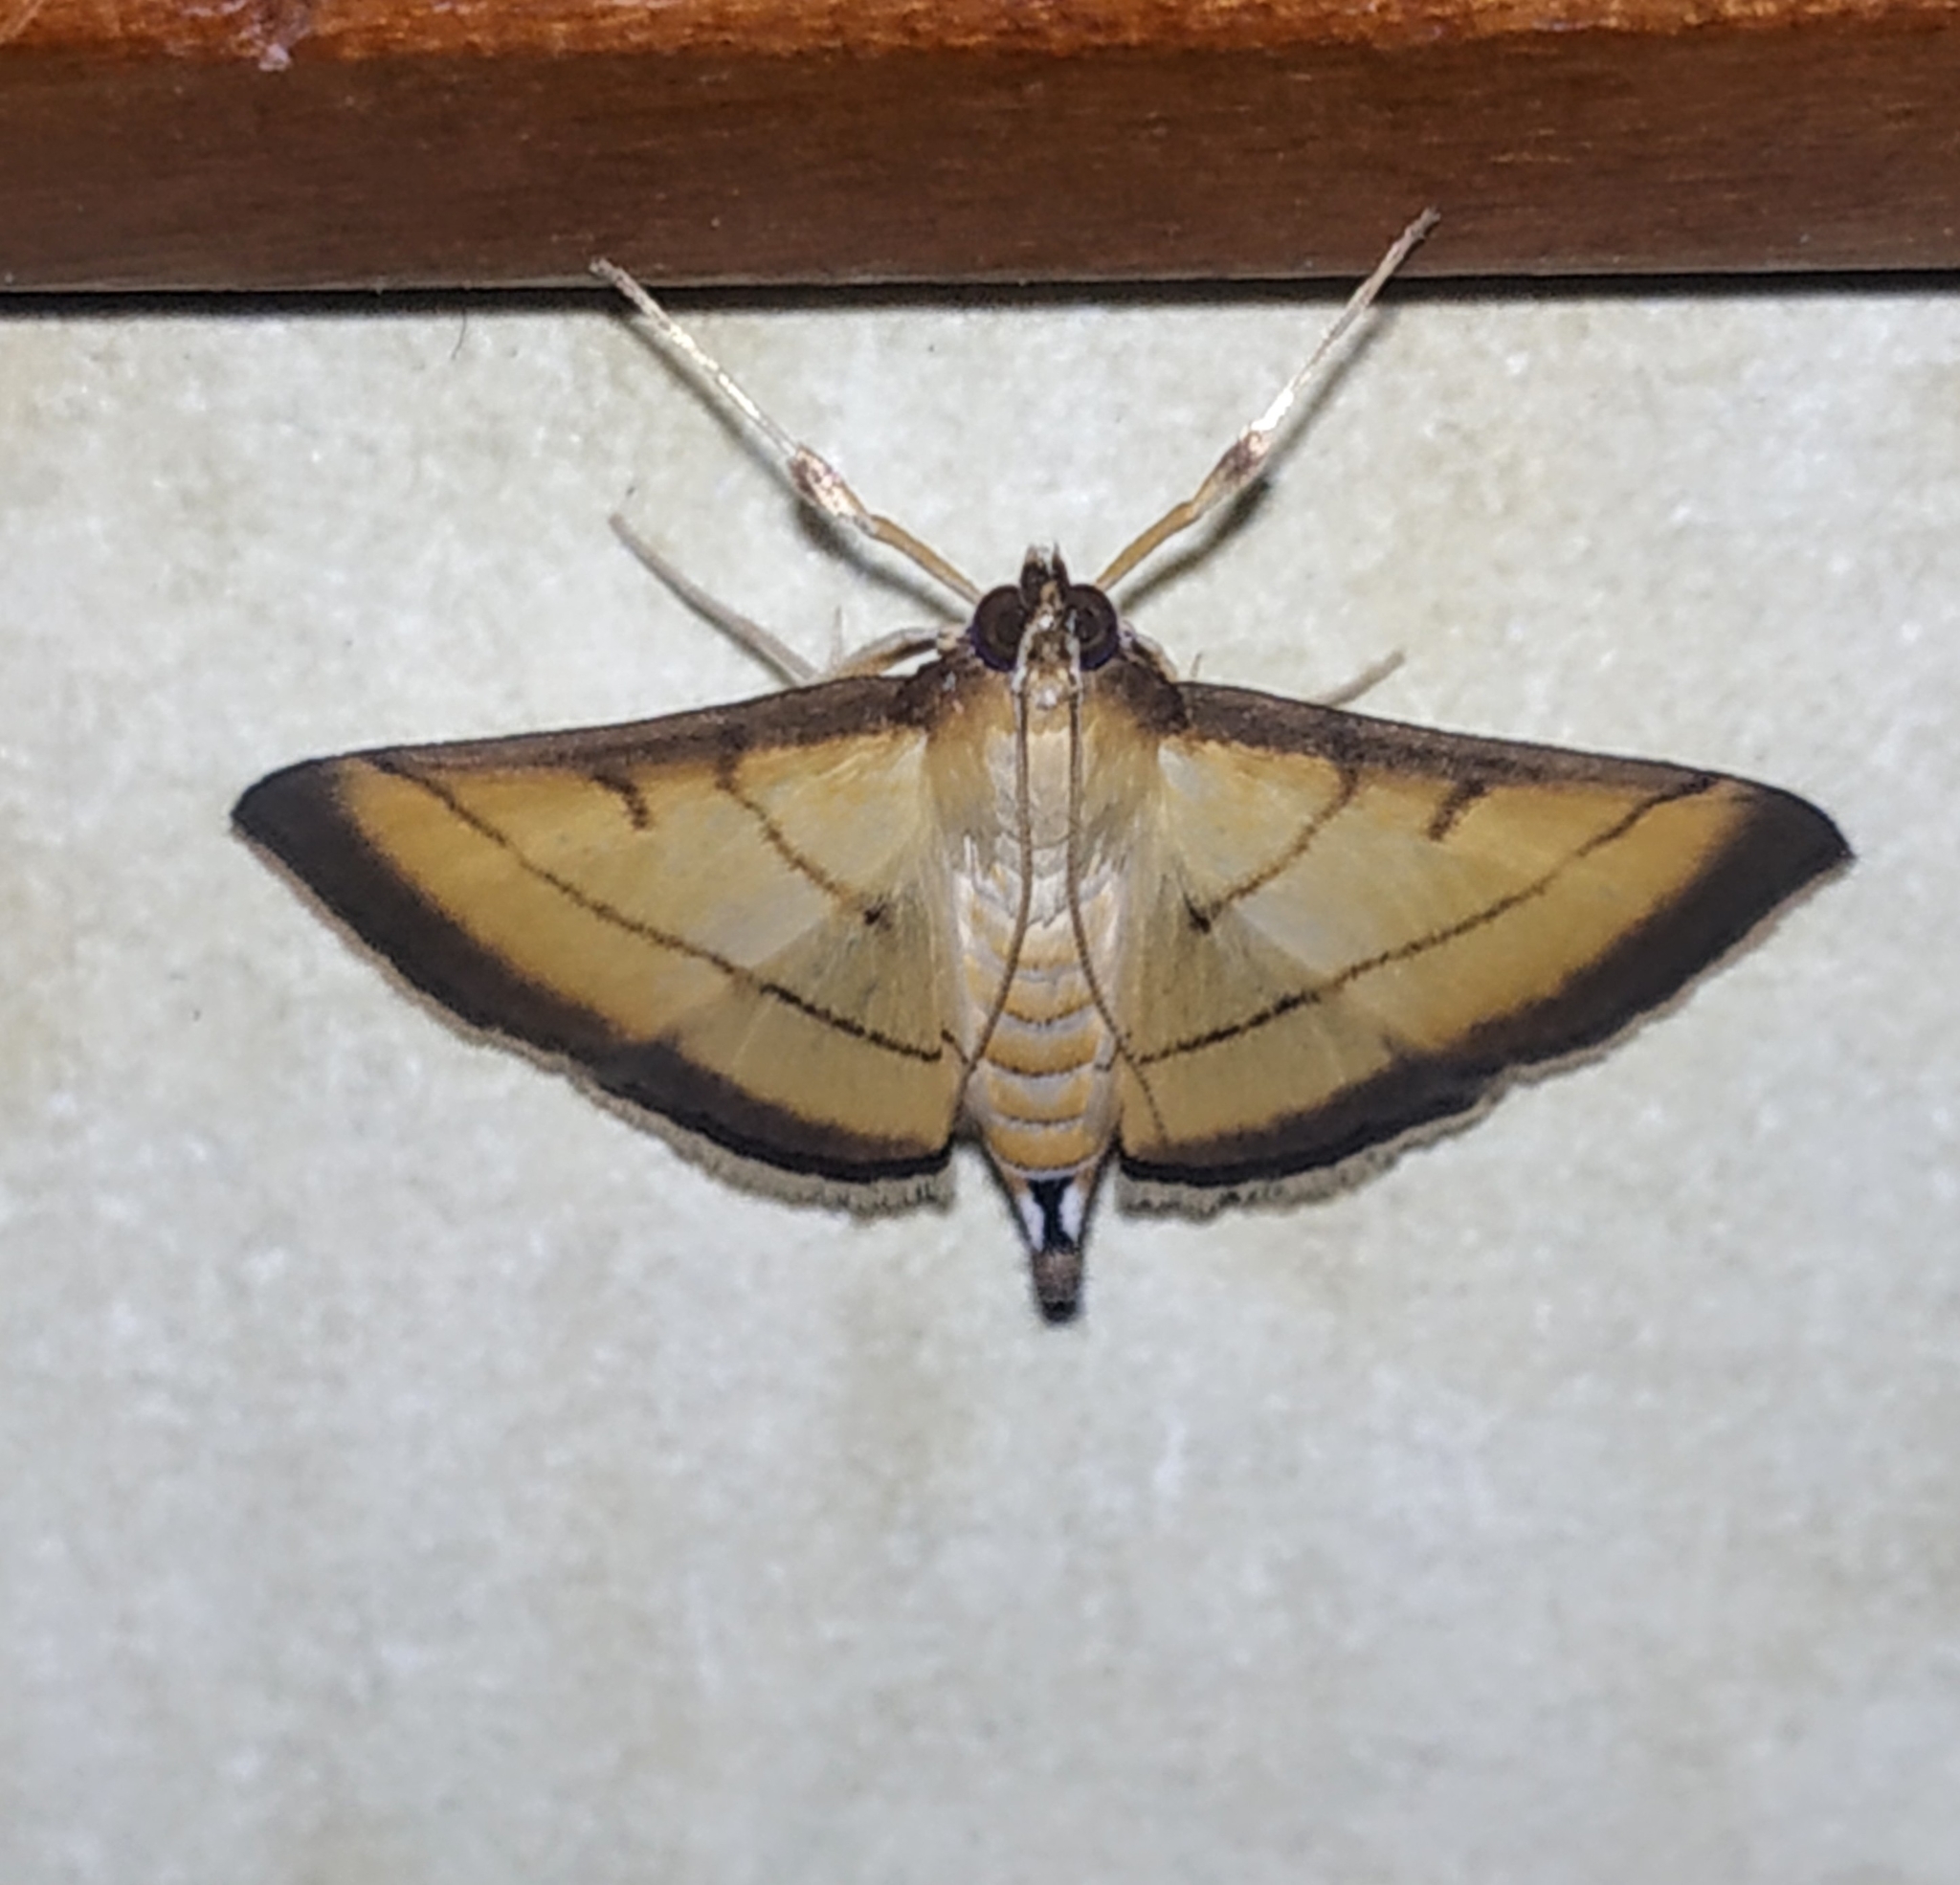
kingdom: Animalia
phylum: Arthropoda
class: Insecta
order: Lepidoptera
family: Crambidae
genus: Cnaphalocrocis
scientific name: Cnaphalocrocis medinalis
